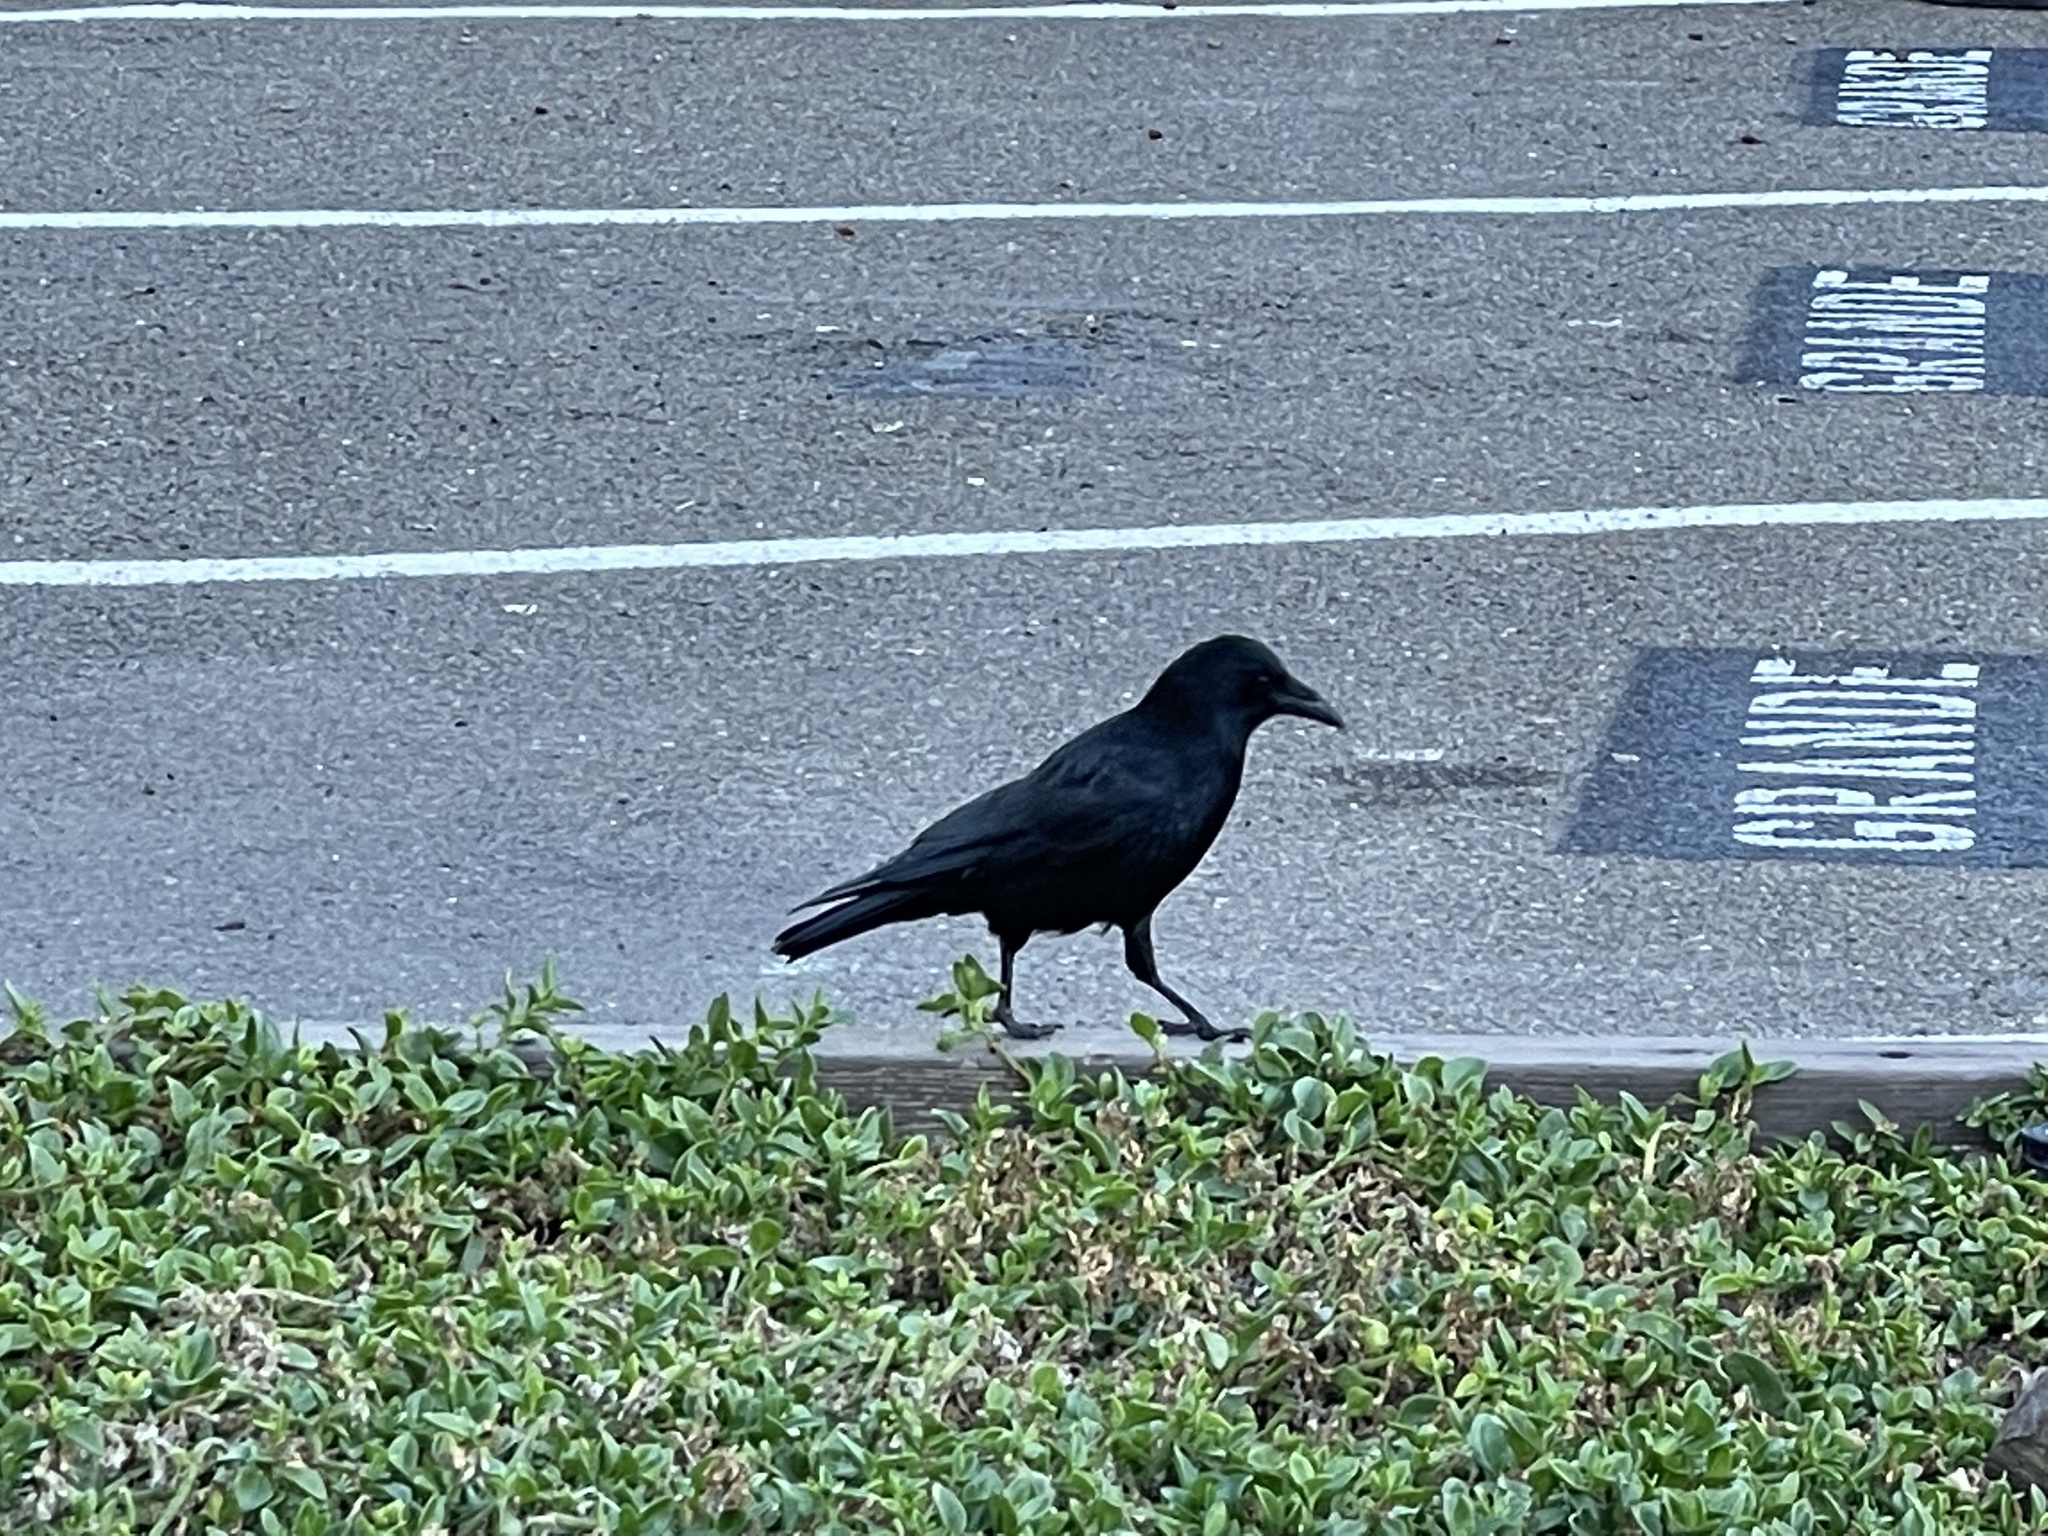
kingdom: Animalia
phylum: Chordata
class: Aves
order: Passeriformes
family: Corvidae
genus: Corvus
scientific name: Corvus brachyrhynchos
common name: American crow
